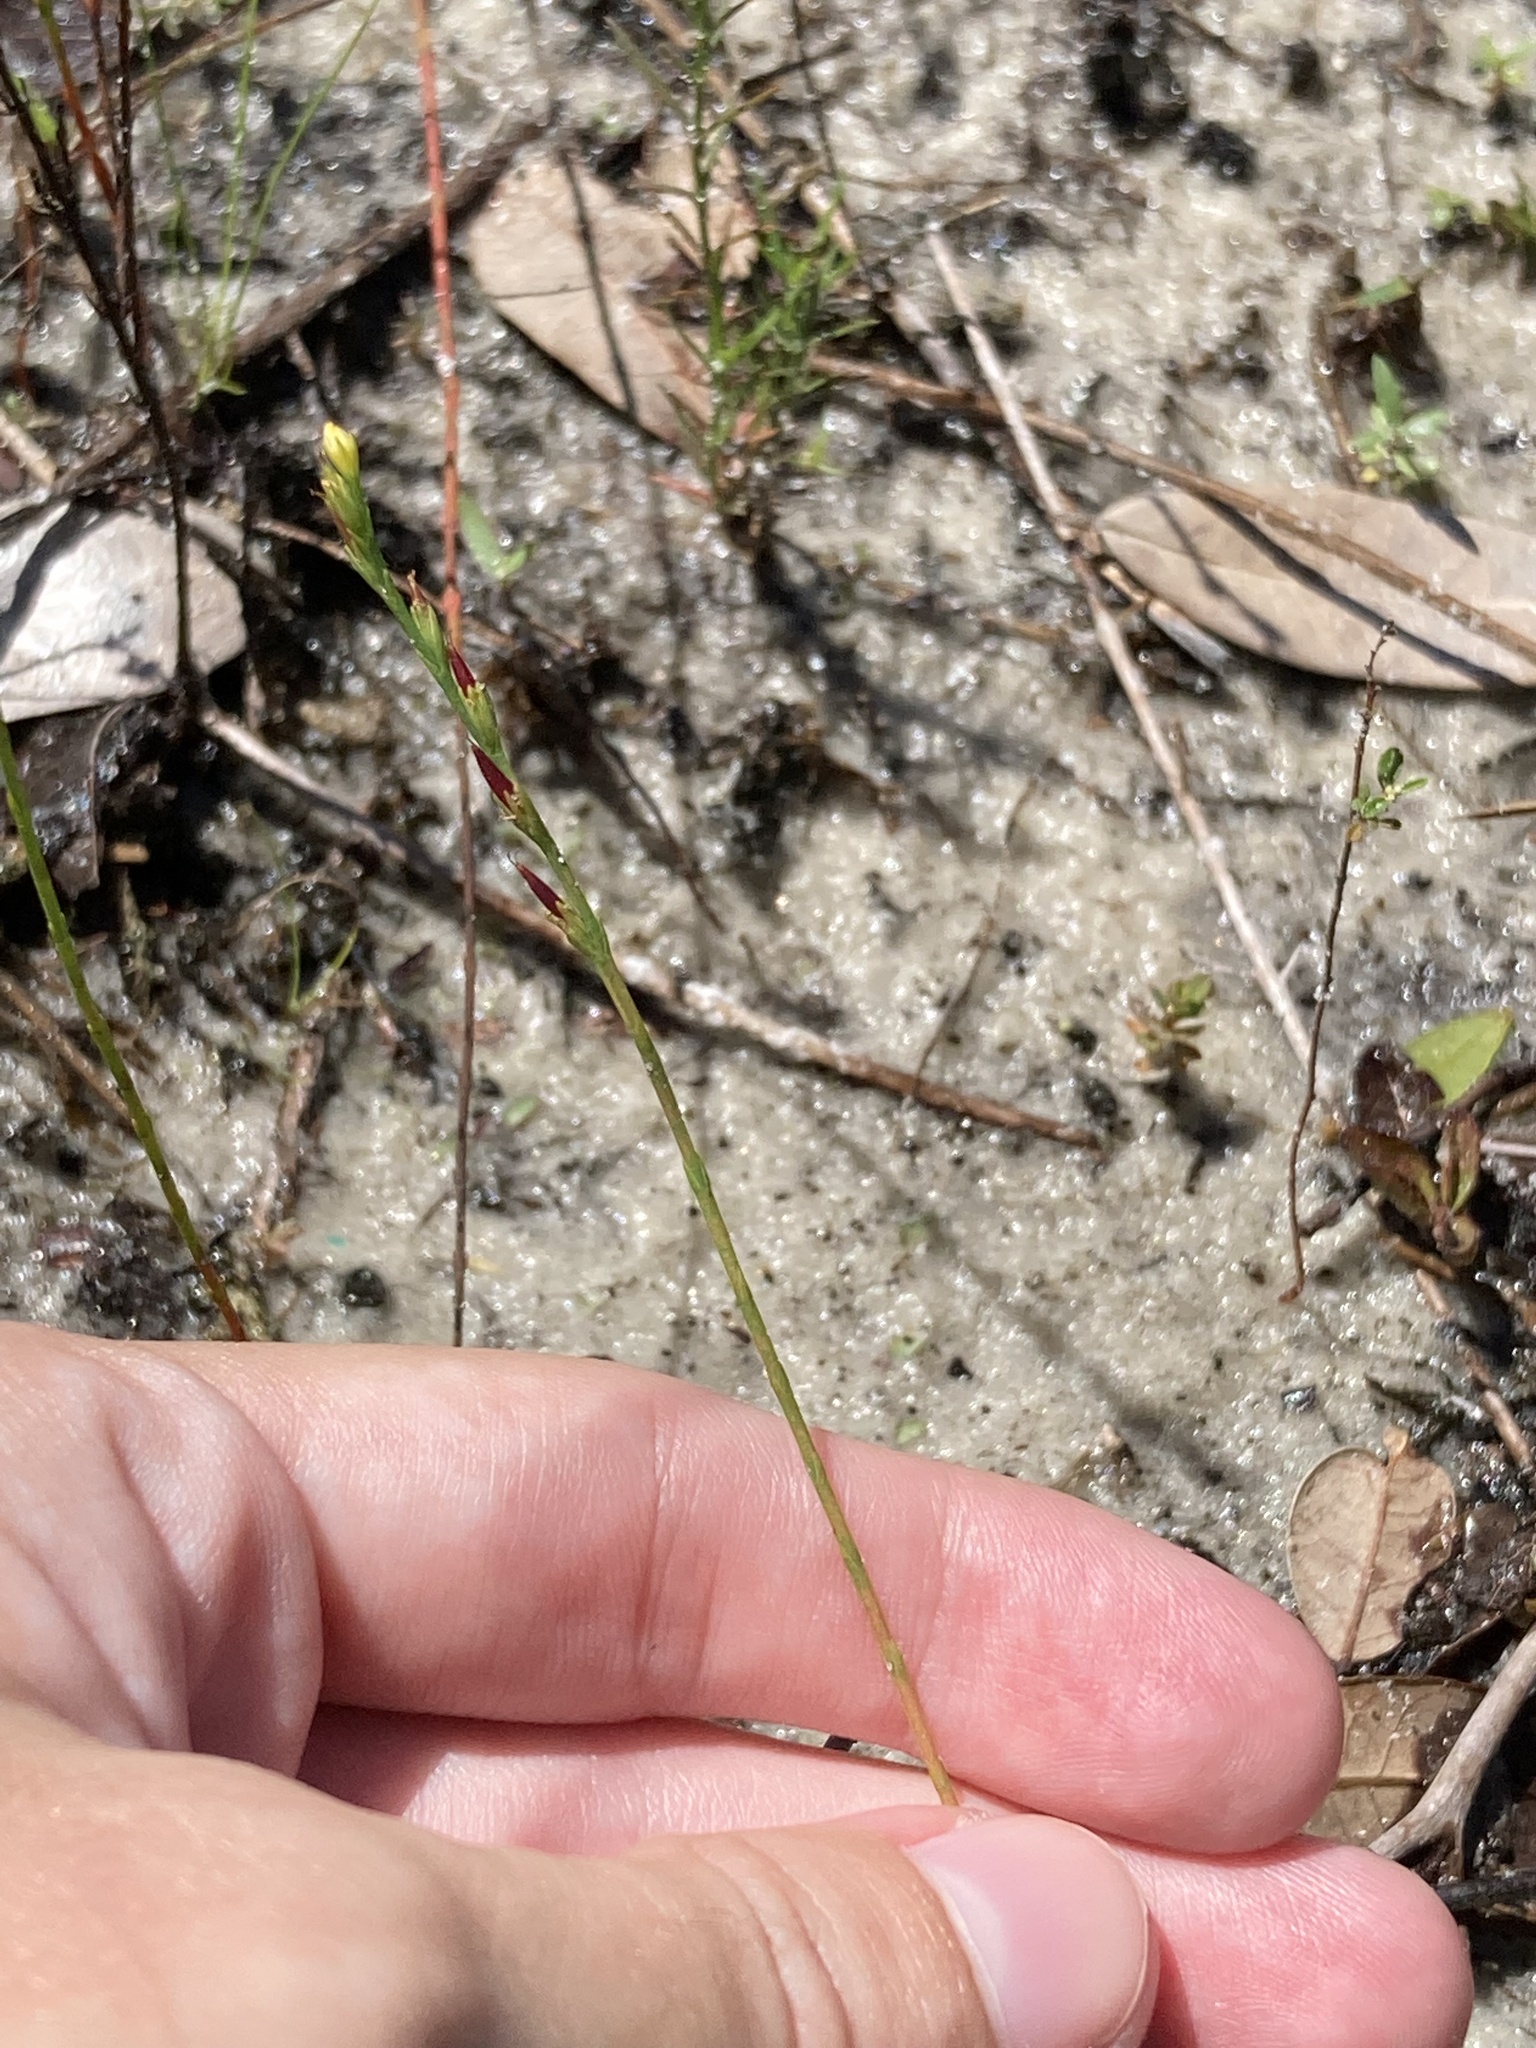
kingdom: Plantae
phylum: Tracheophyta
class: Magnoliopsida
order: Malpighiales
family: Hypericaceae
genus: Hypericum
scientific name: Hypericum gentianoides
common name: Gentian-leaved st. john's-wort
